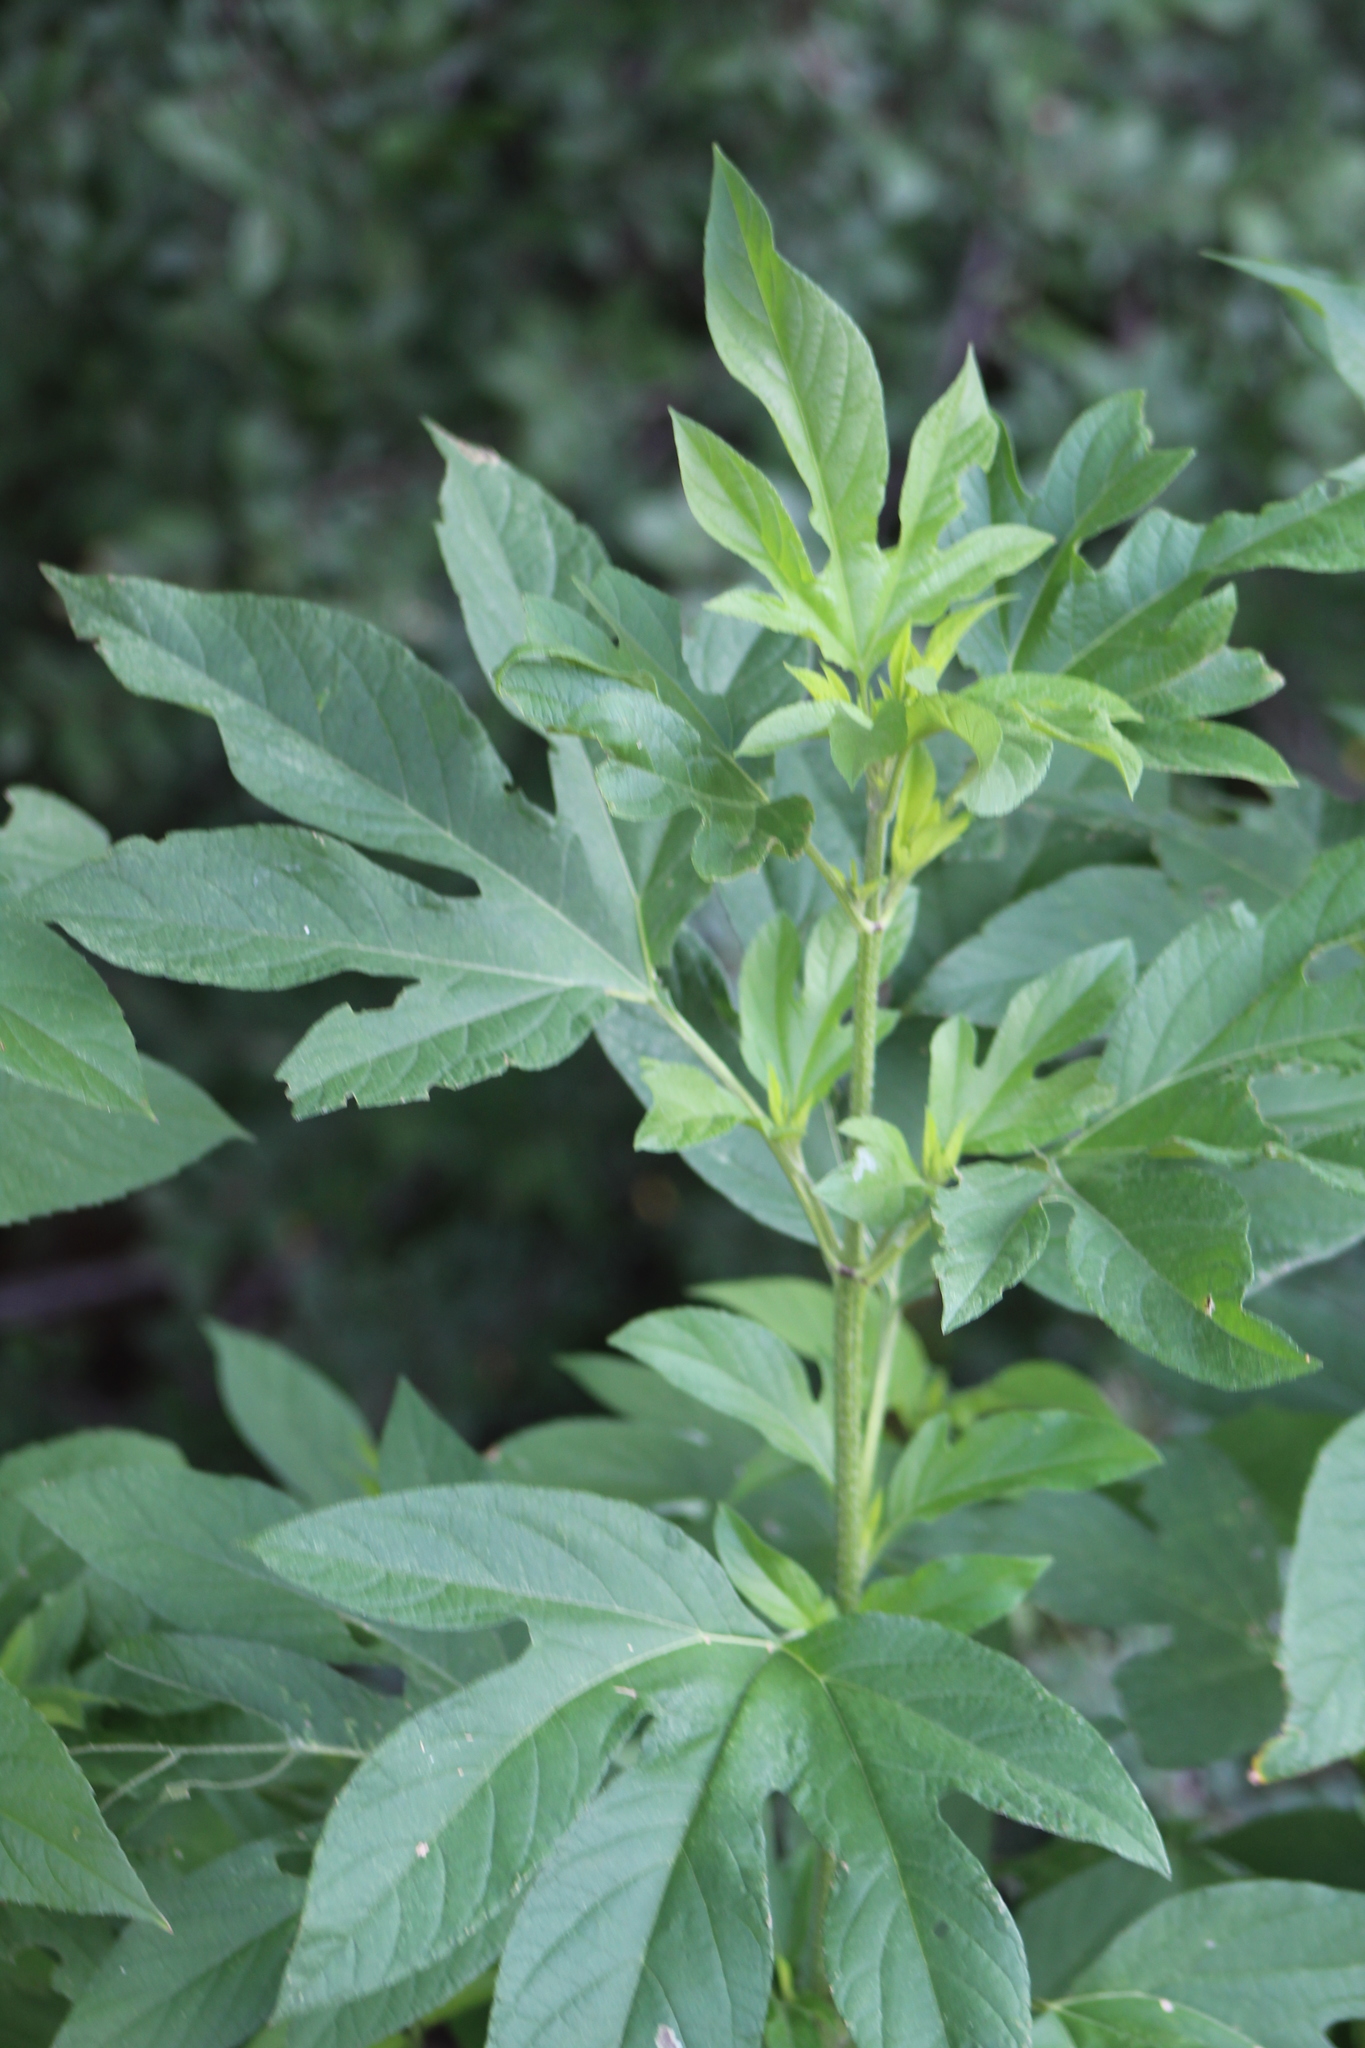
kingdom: Plantae
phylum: Tracheophyta
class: Magnoliopsida
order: Asterales
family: Asteraceae
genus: Ambrosia
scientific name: Ambrosia trifida
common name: Giant ragweed
